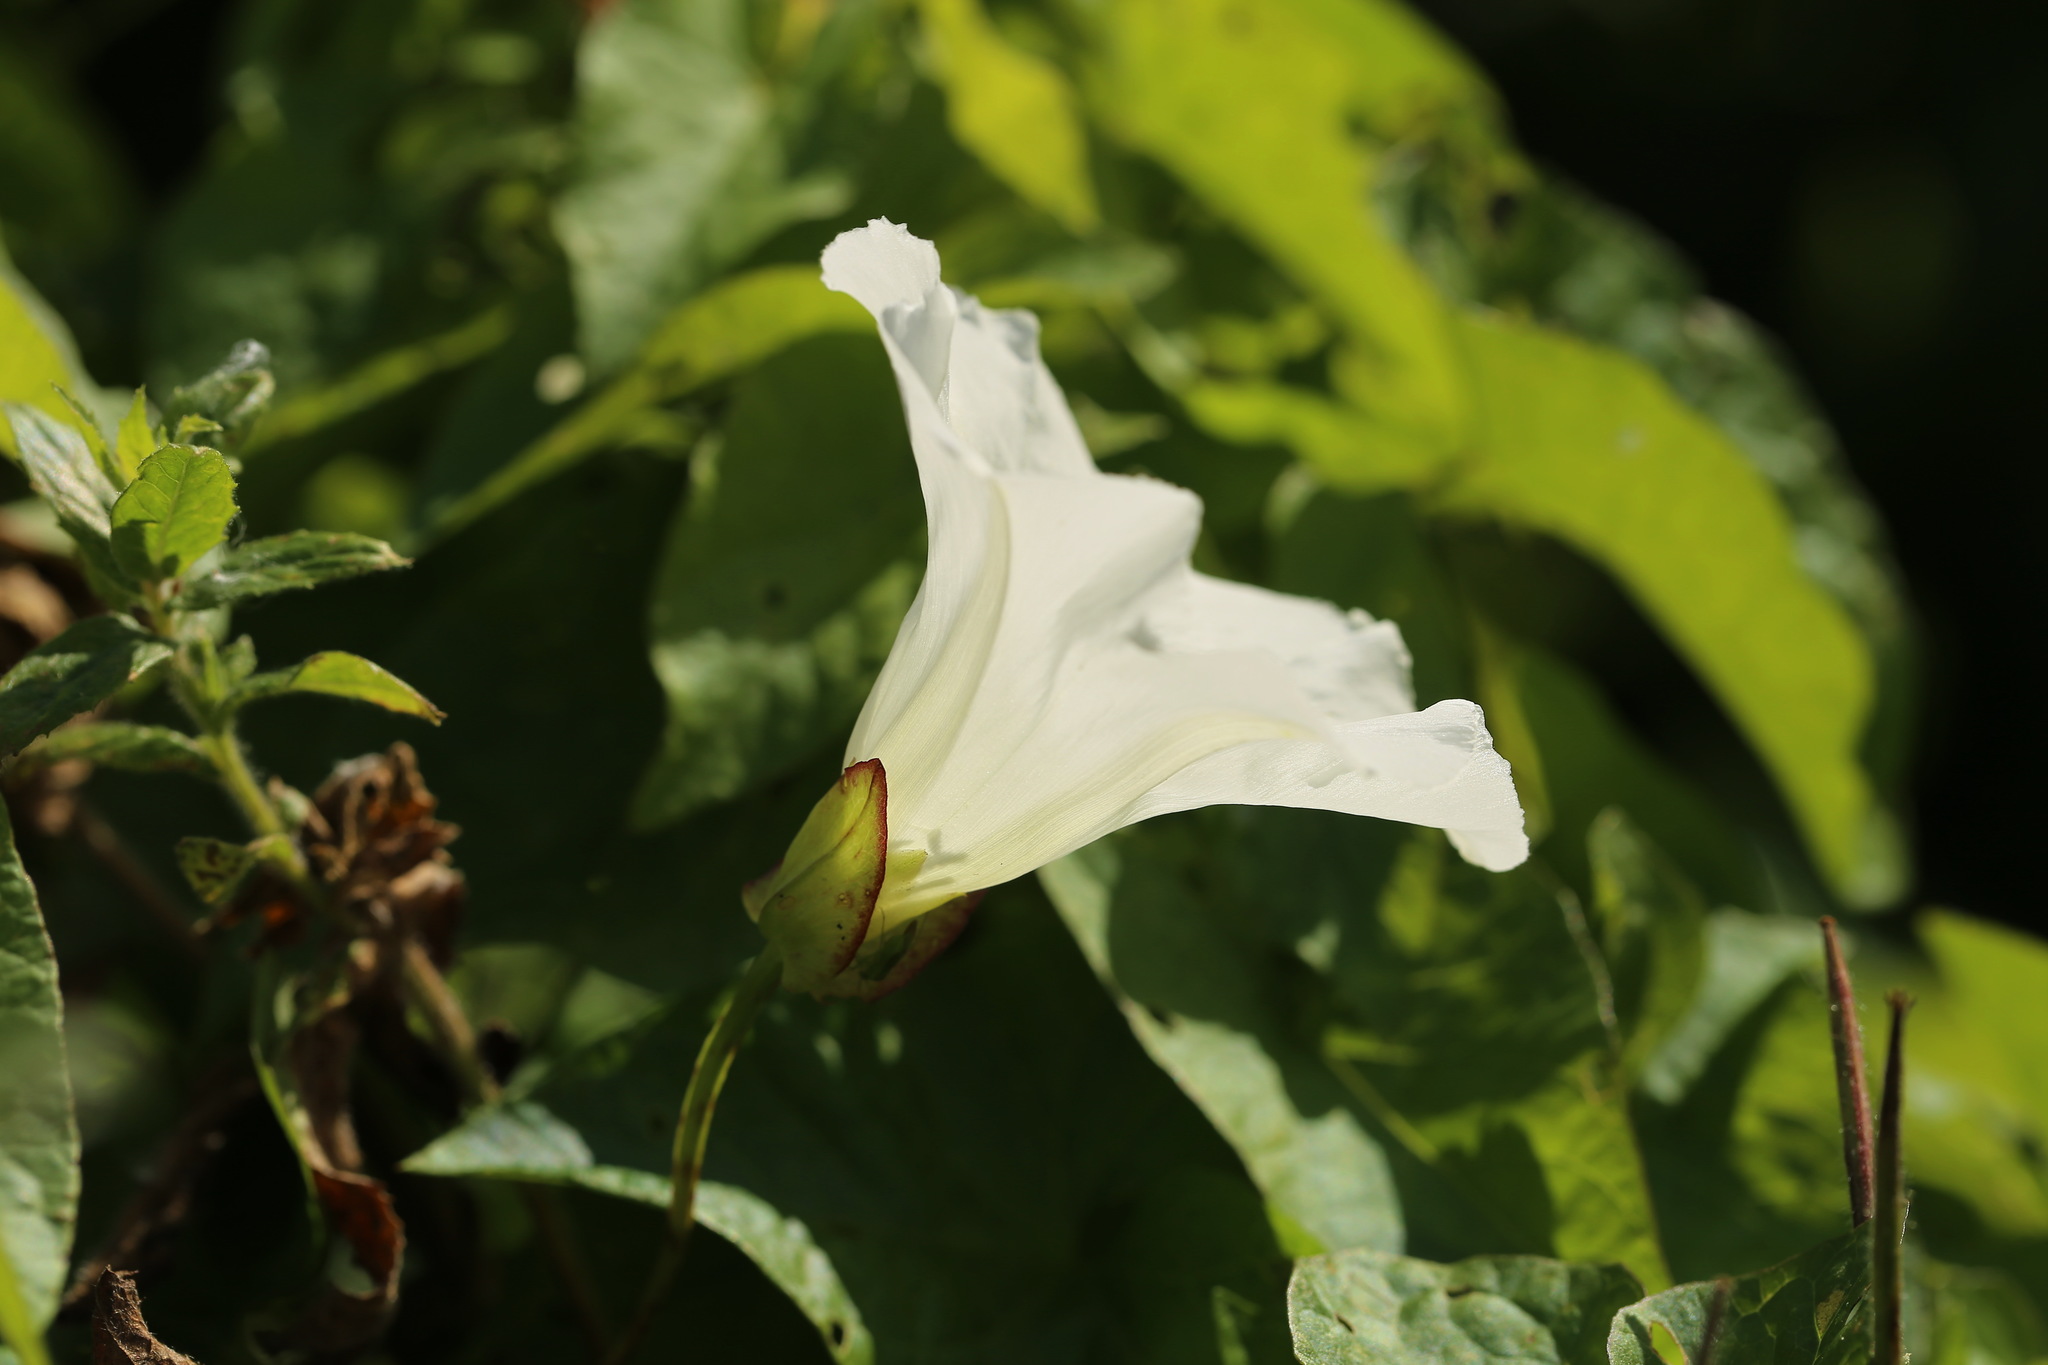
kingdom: Plantae
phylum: Tracheophyta
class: Magnoliopsida
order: Solanales
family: Convolvulaceae
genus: Calystegia
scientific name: Calystegia sepium
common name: Hedge bindweed
